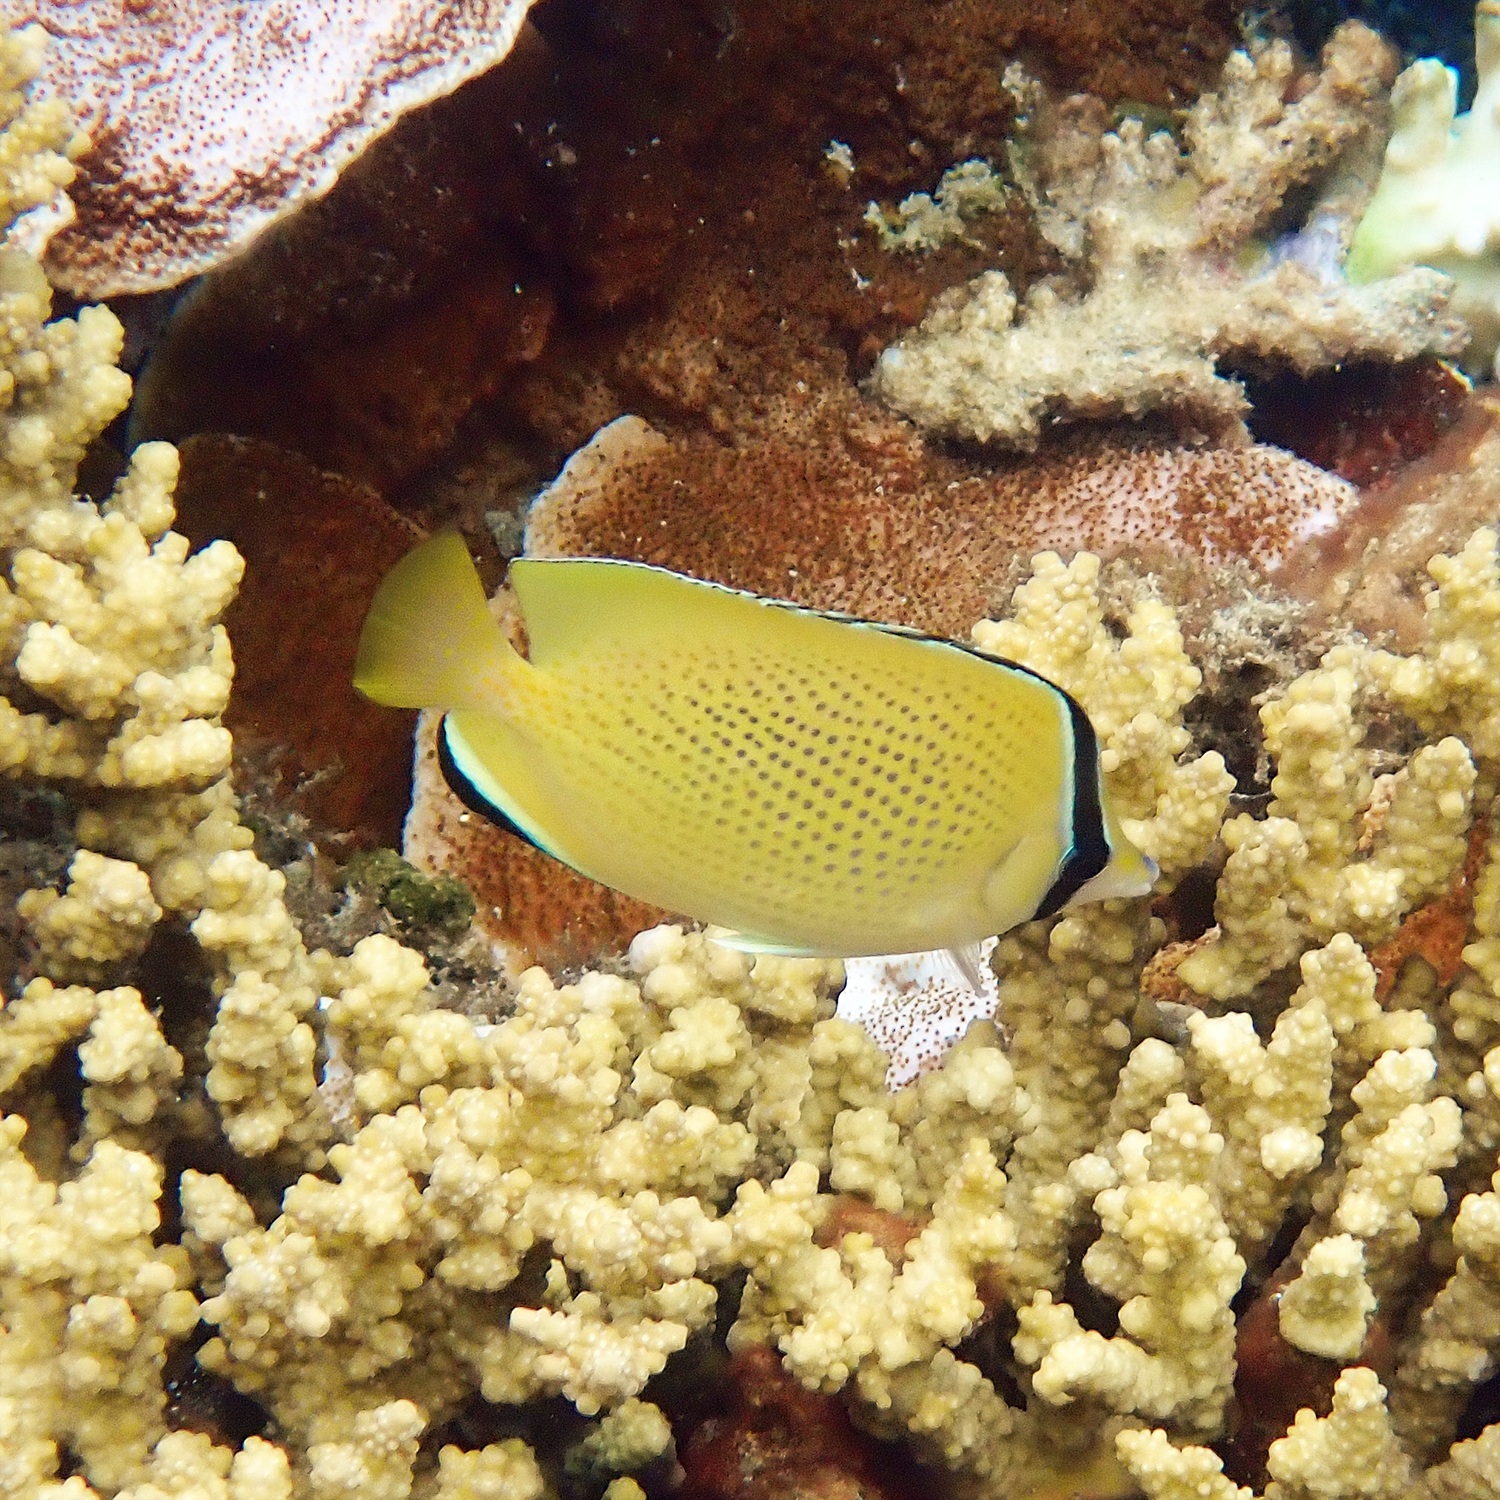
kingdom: Animalia
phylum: Chordata
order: Perciformes
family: Chaetodontidae
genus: Chaetodon
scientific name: Chaetodon citrinellus
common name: Speckled butterflyfish
